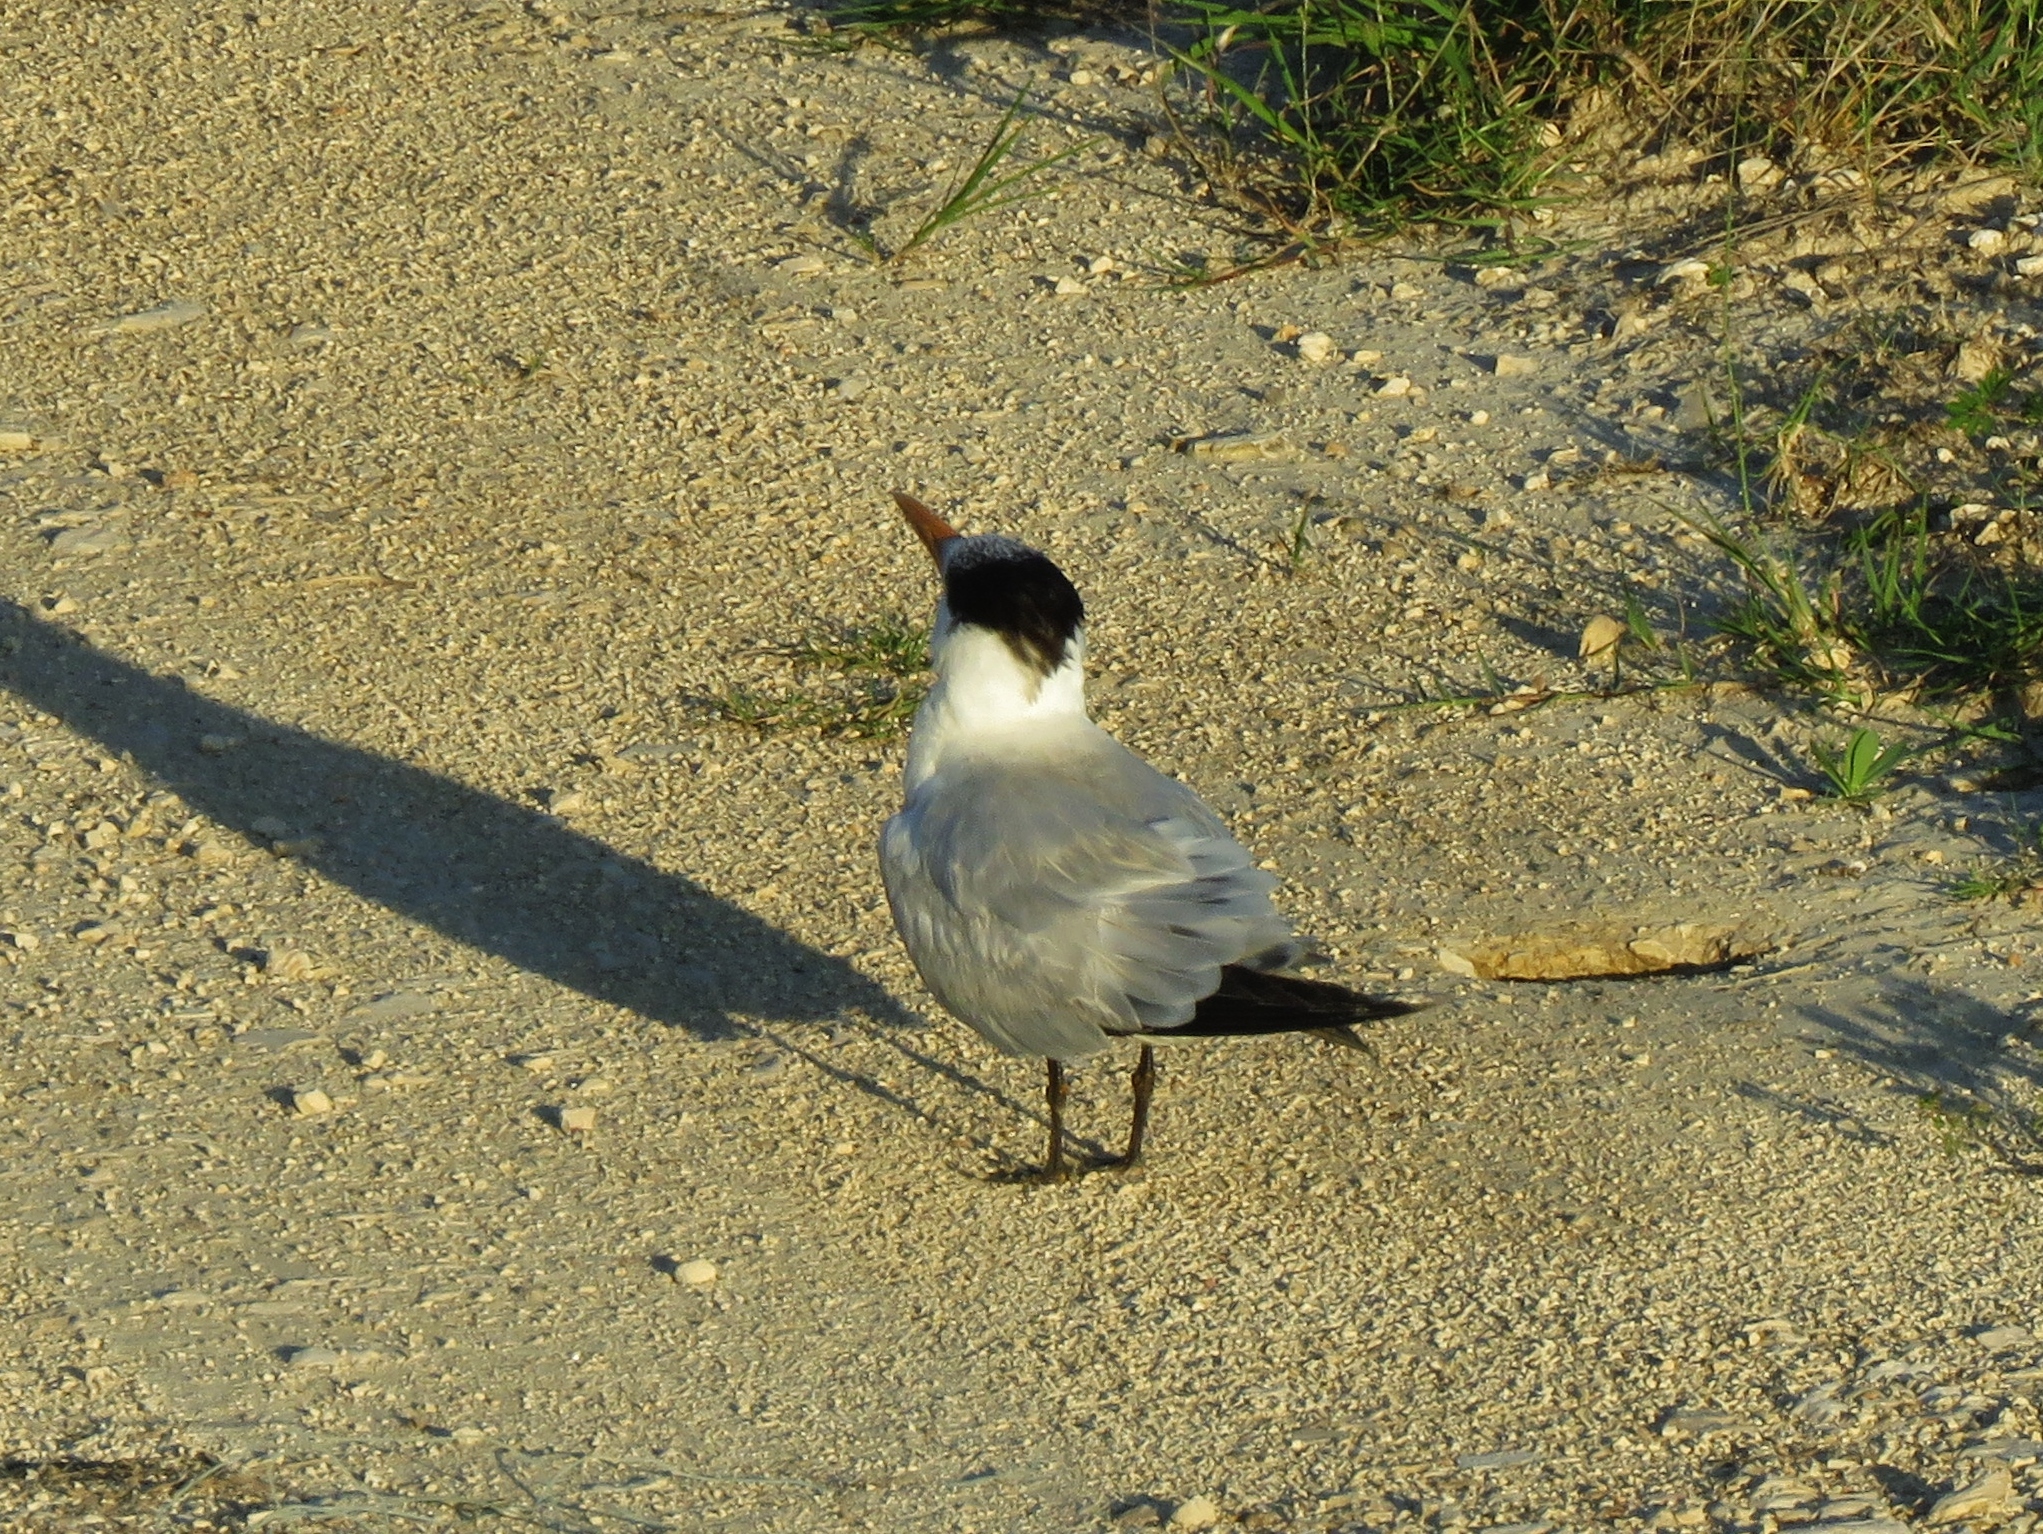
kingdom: Animalia
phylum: Chordata
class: Aves
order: Charadriiformes
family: Laridae
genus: Thalasseus
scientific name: Thalasseus maximus
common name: Royal tern
